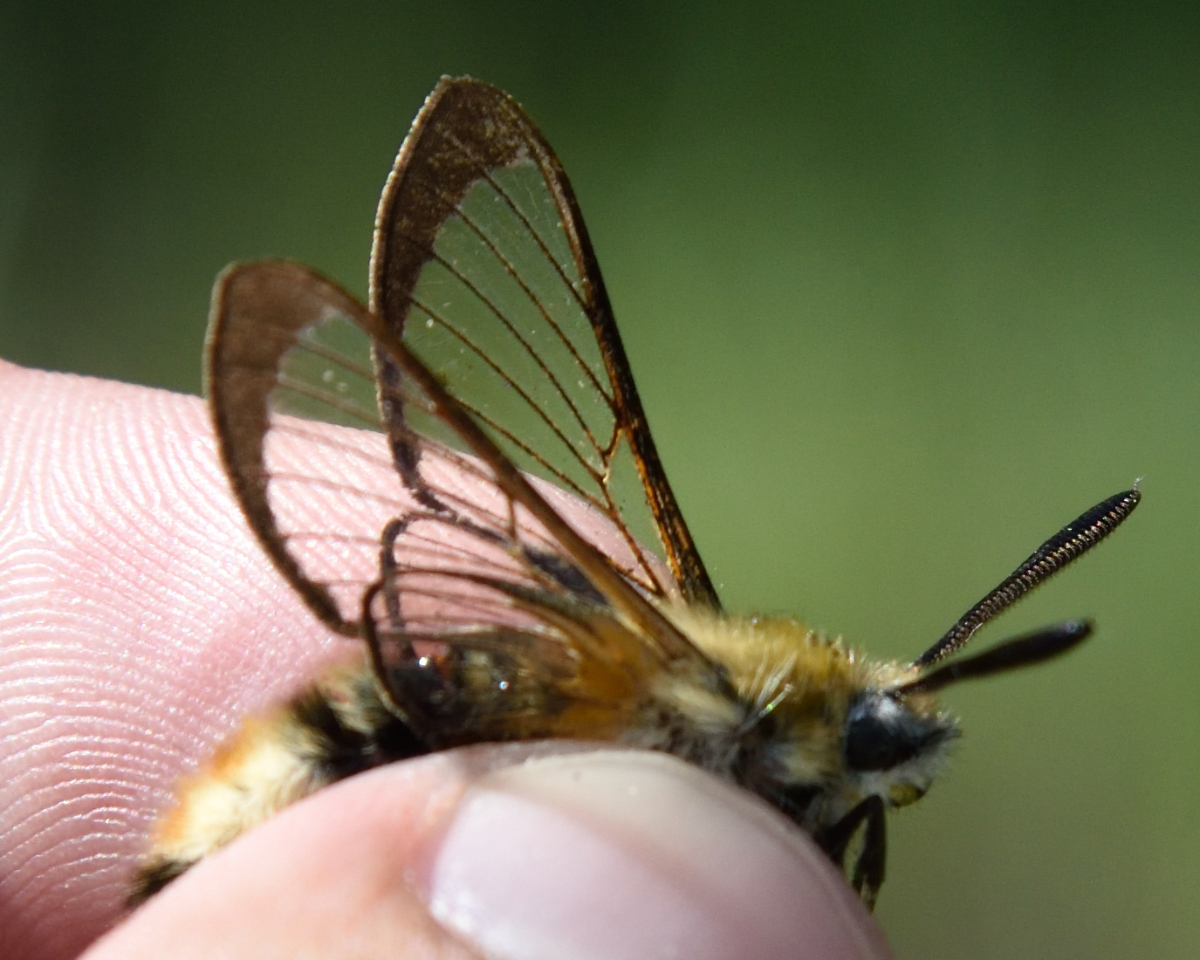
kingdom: Animalia
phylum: Arthropoda
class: Insecta
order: Lepidoptera
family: Sphingidae
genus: Hemaris
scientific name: Hemaris tityus
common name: Narrow-bordered bee hawk-moth
